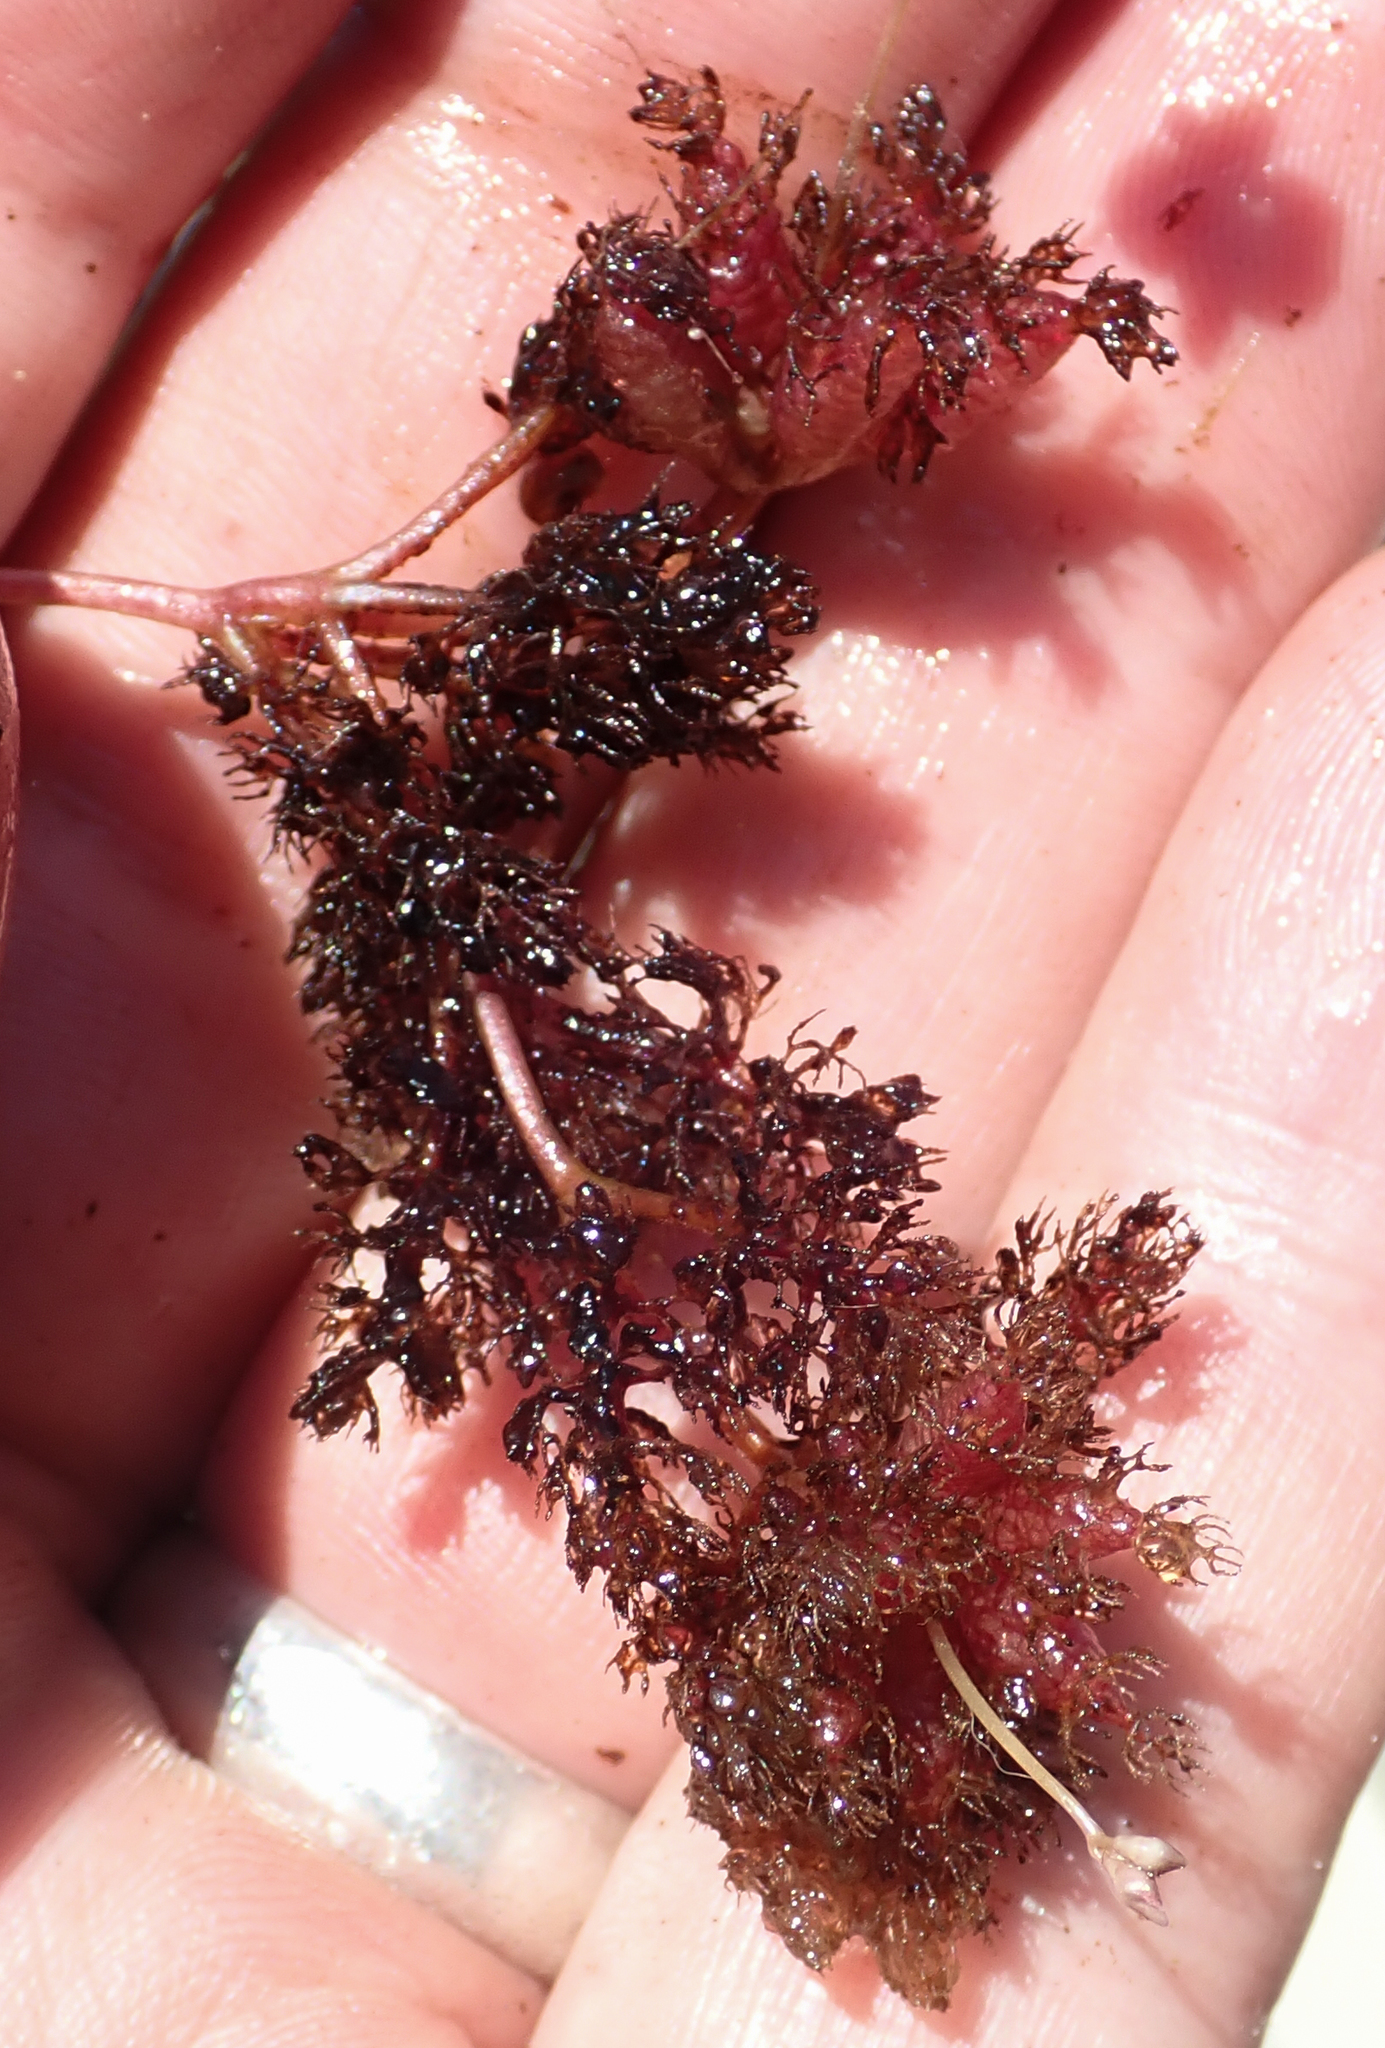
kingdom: Plantae
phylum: Tracheophyta
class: Magnoliopsida
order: Lamiales
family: Lentibulariaceae
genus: Utricularia
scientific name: Utricularia benjaminiana
